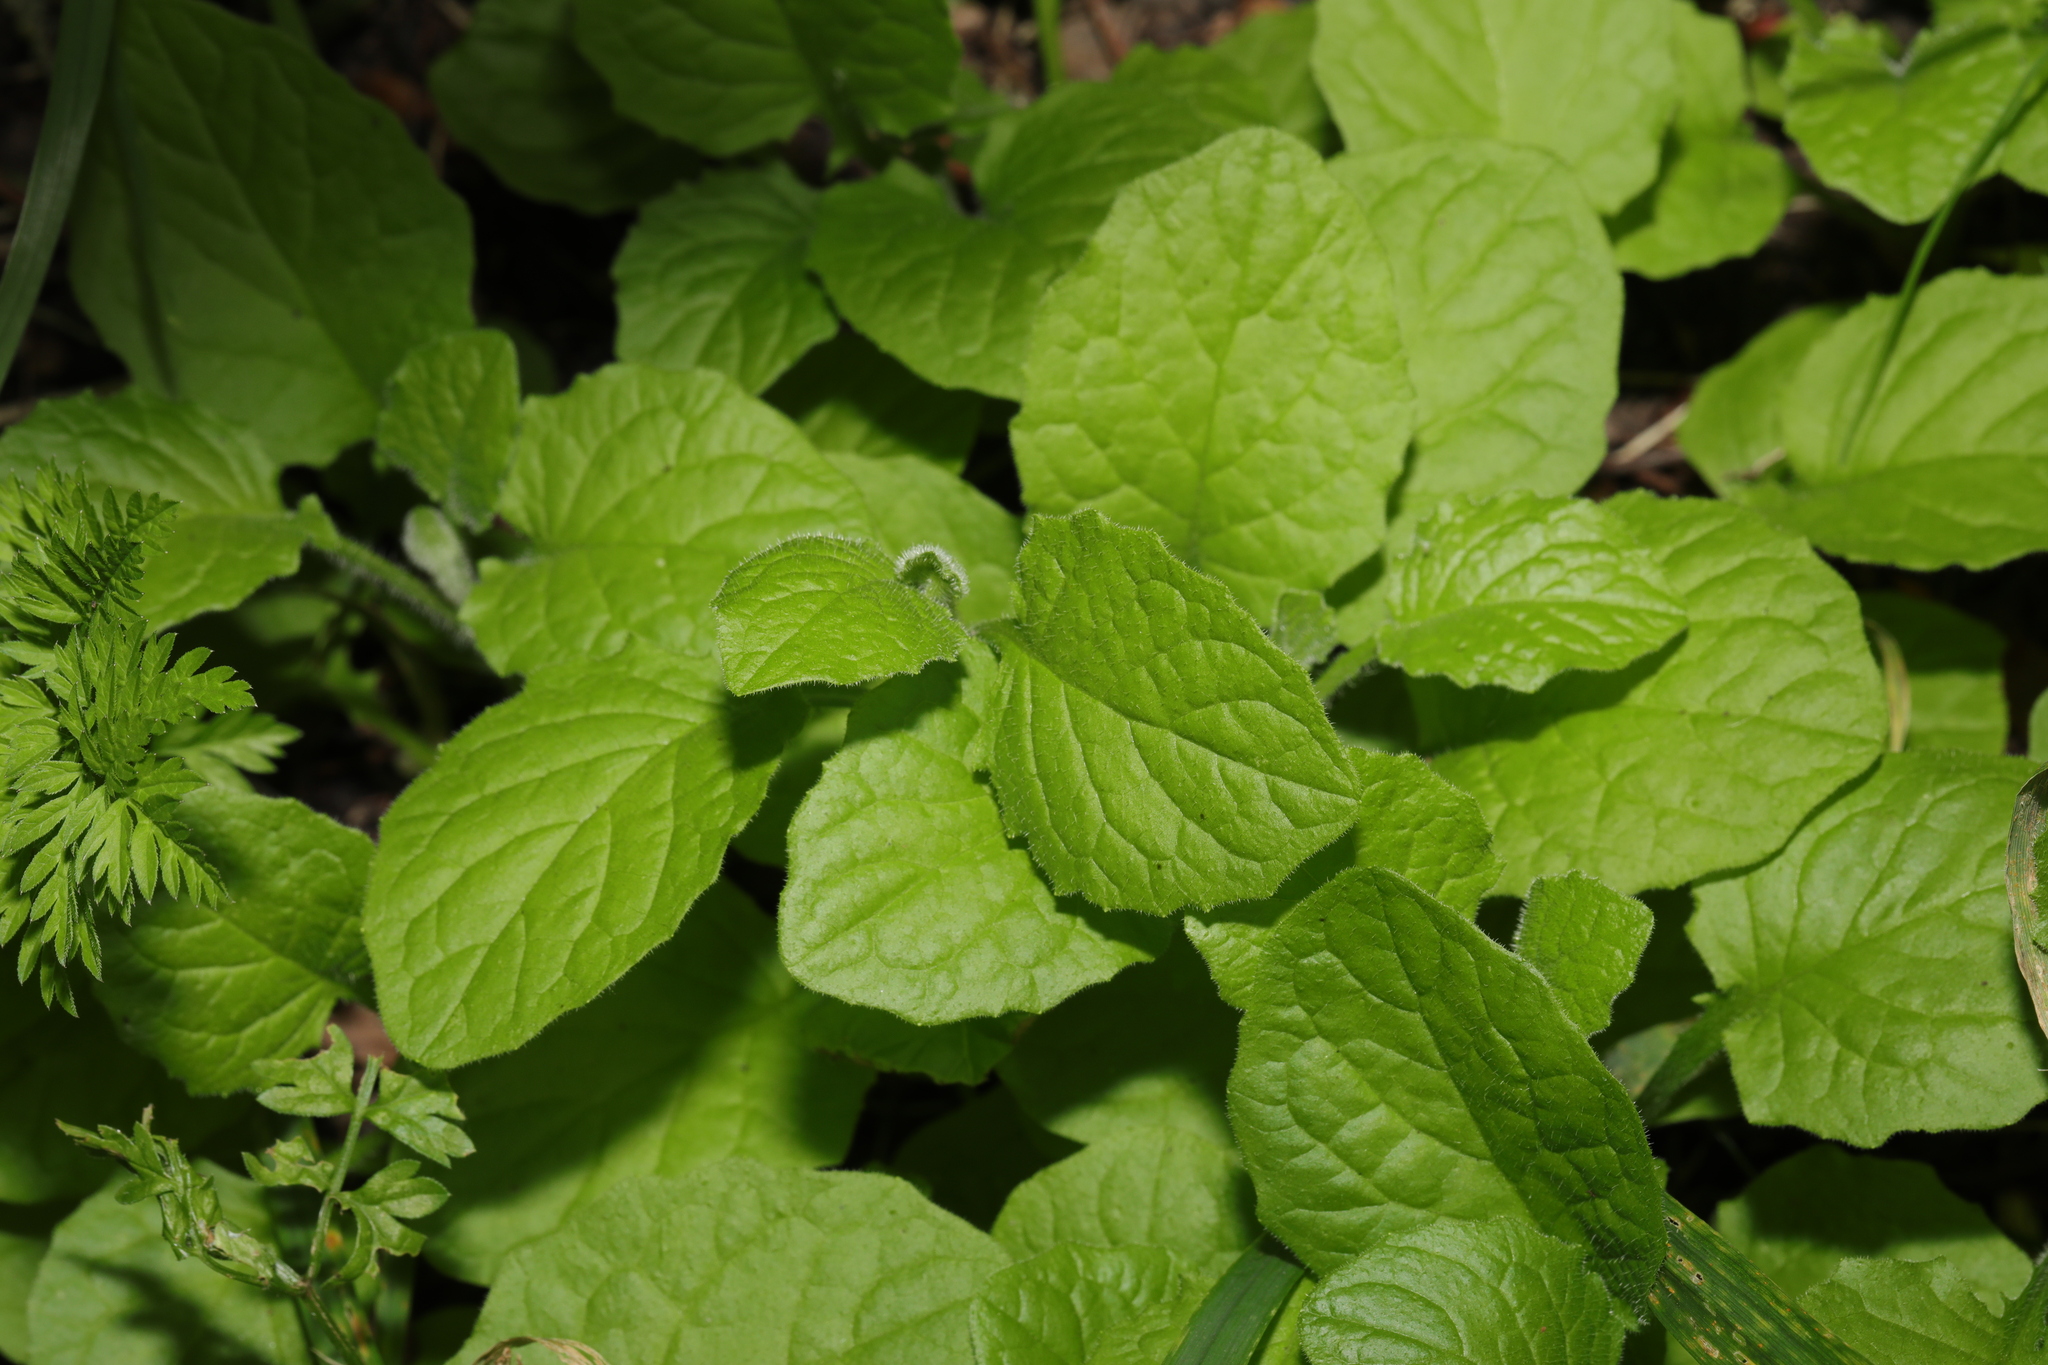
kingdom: Plantae
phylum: Tracheophyta
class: Magnoliopsida
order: Asterales
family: Asteraceae
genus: Lapsana
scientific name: Lapsana communis
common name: Nipplewort
